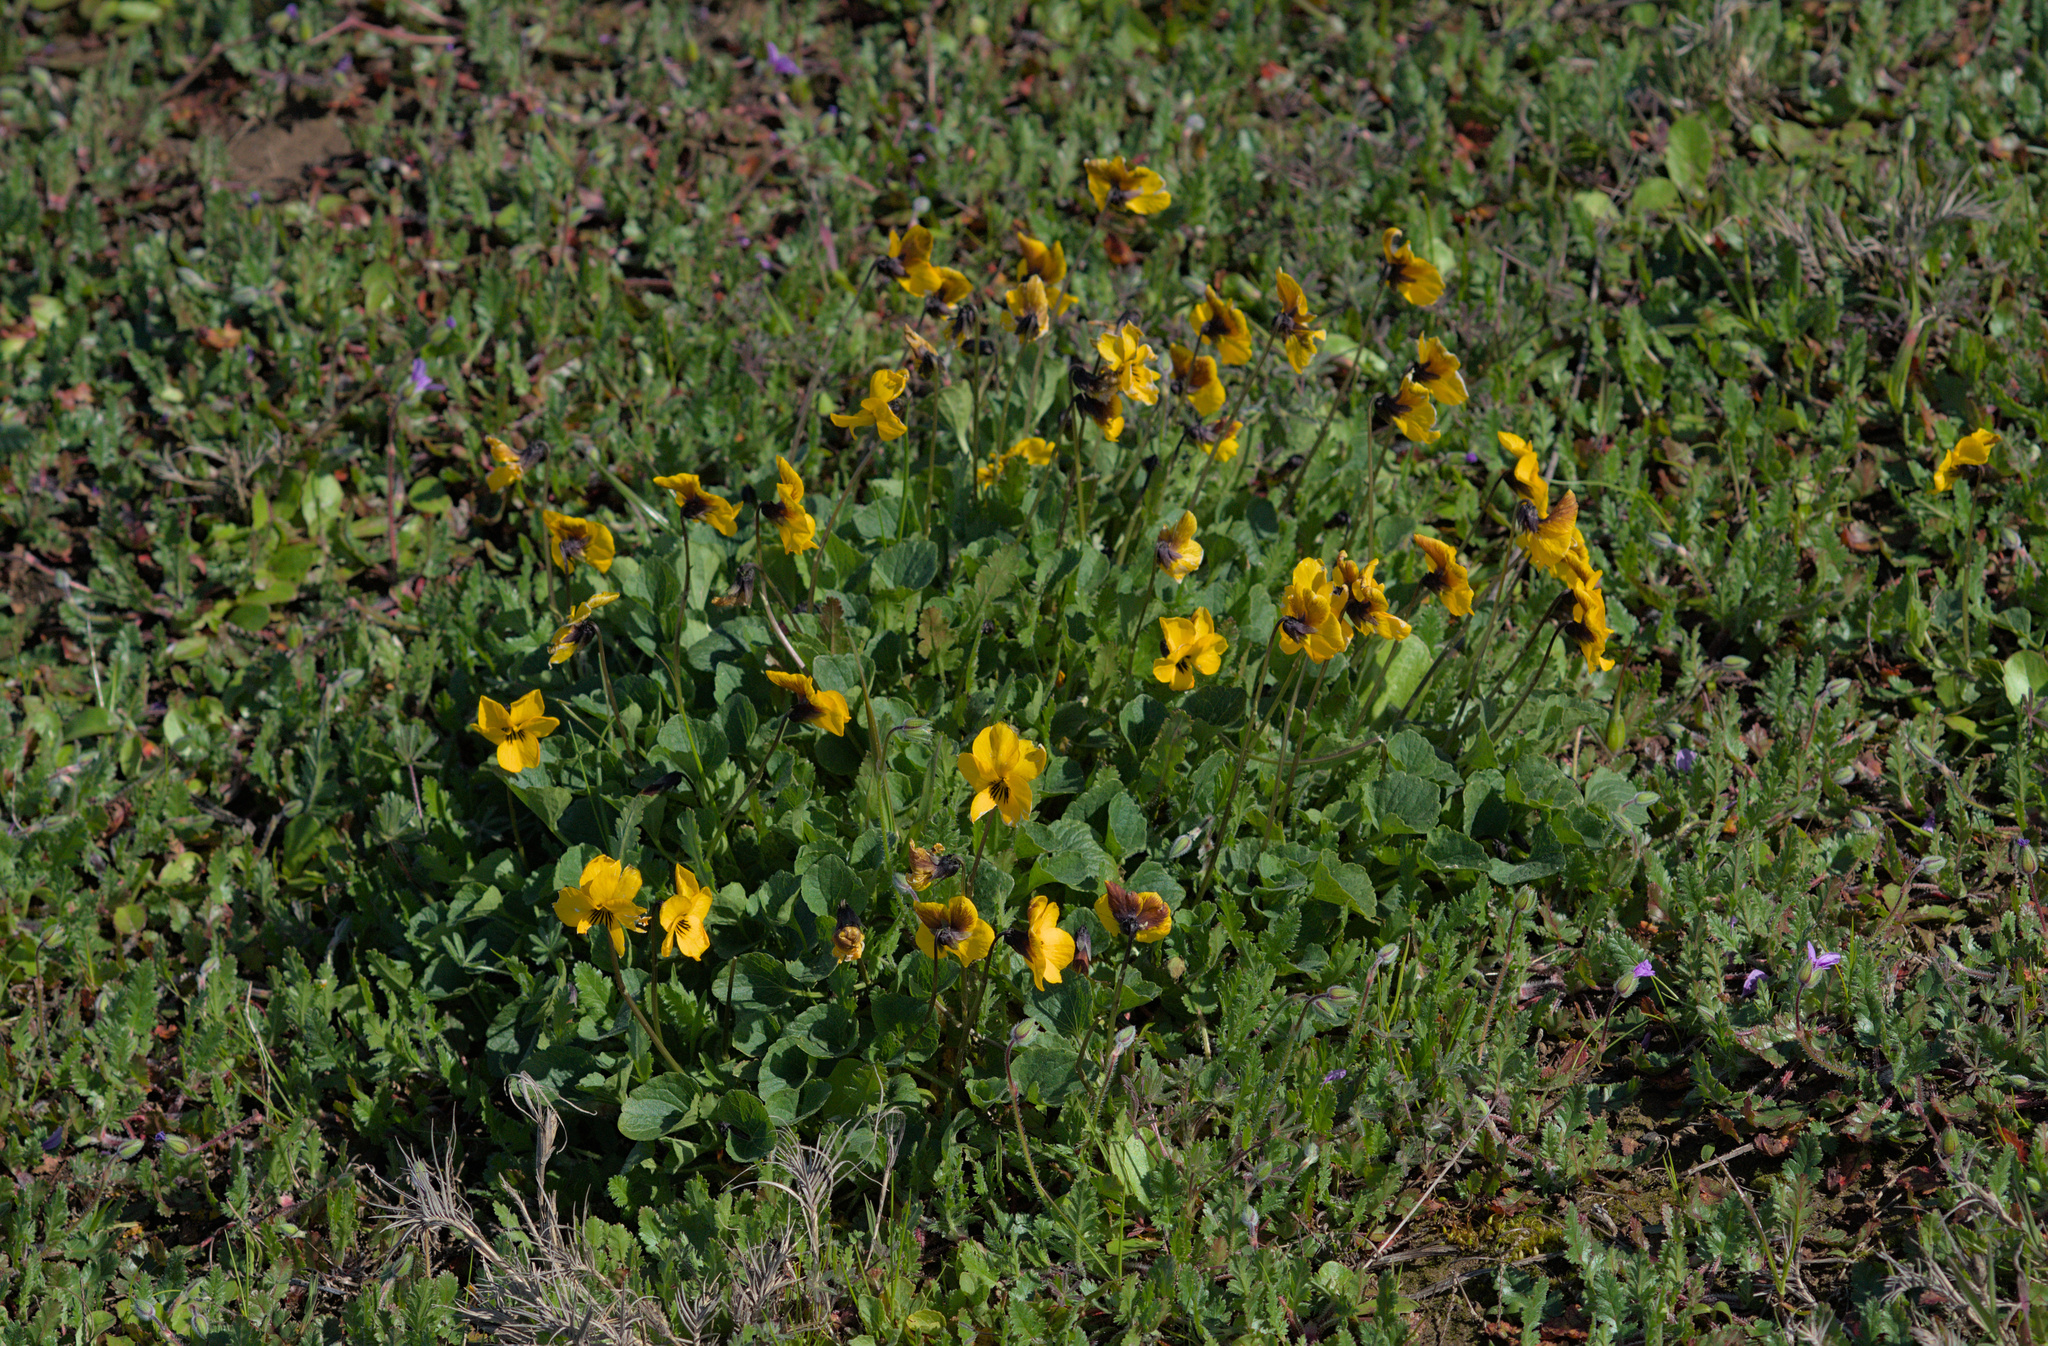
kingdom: Plantae
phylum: Tracheophyta
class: Magnoliopsida
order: Malpighiales
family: Violaceae
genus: Viola
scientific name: Viola pedunculata
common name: California golden violet
